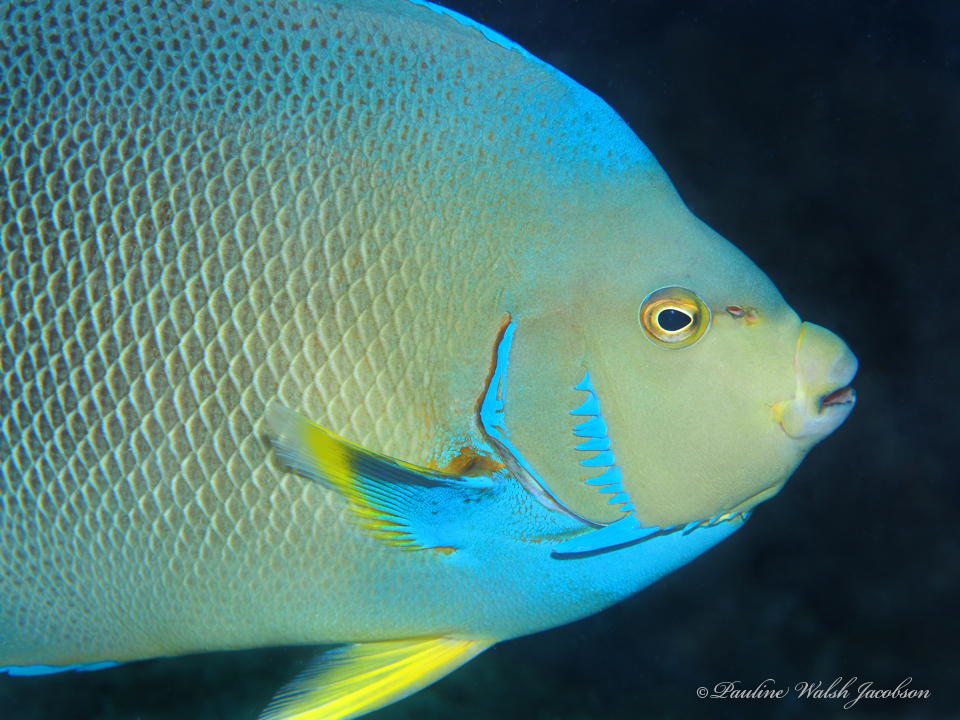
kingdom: Animalia
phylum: Chordata
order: Perciformes
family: Pomacanthidae
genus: Holacanthus
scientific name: Holacanthus bermudensis
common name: Blue angelfish
